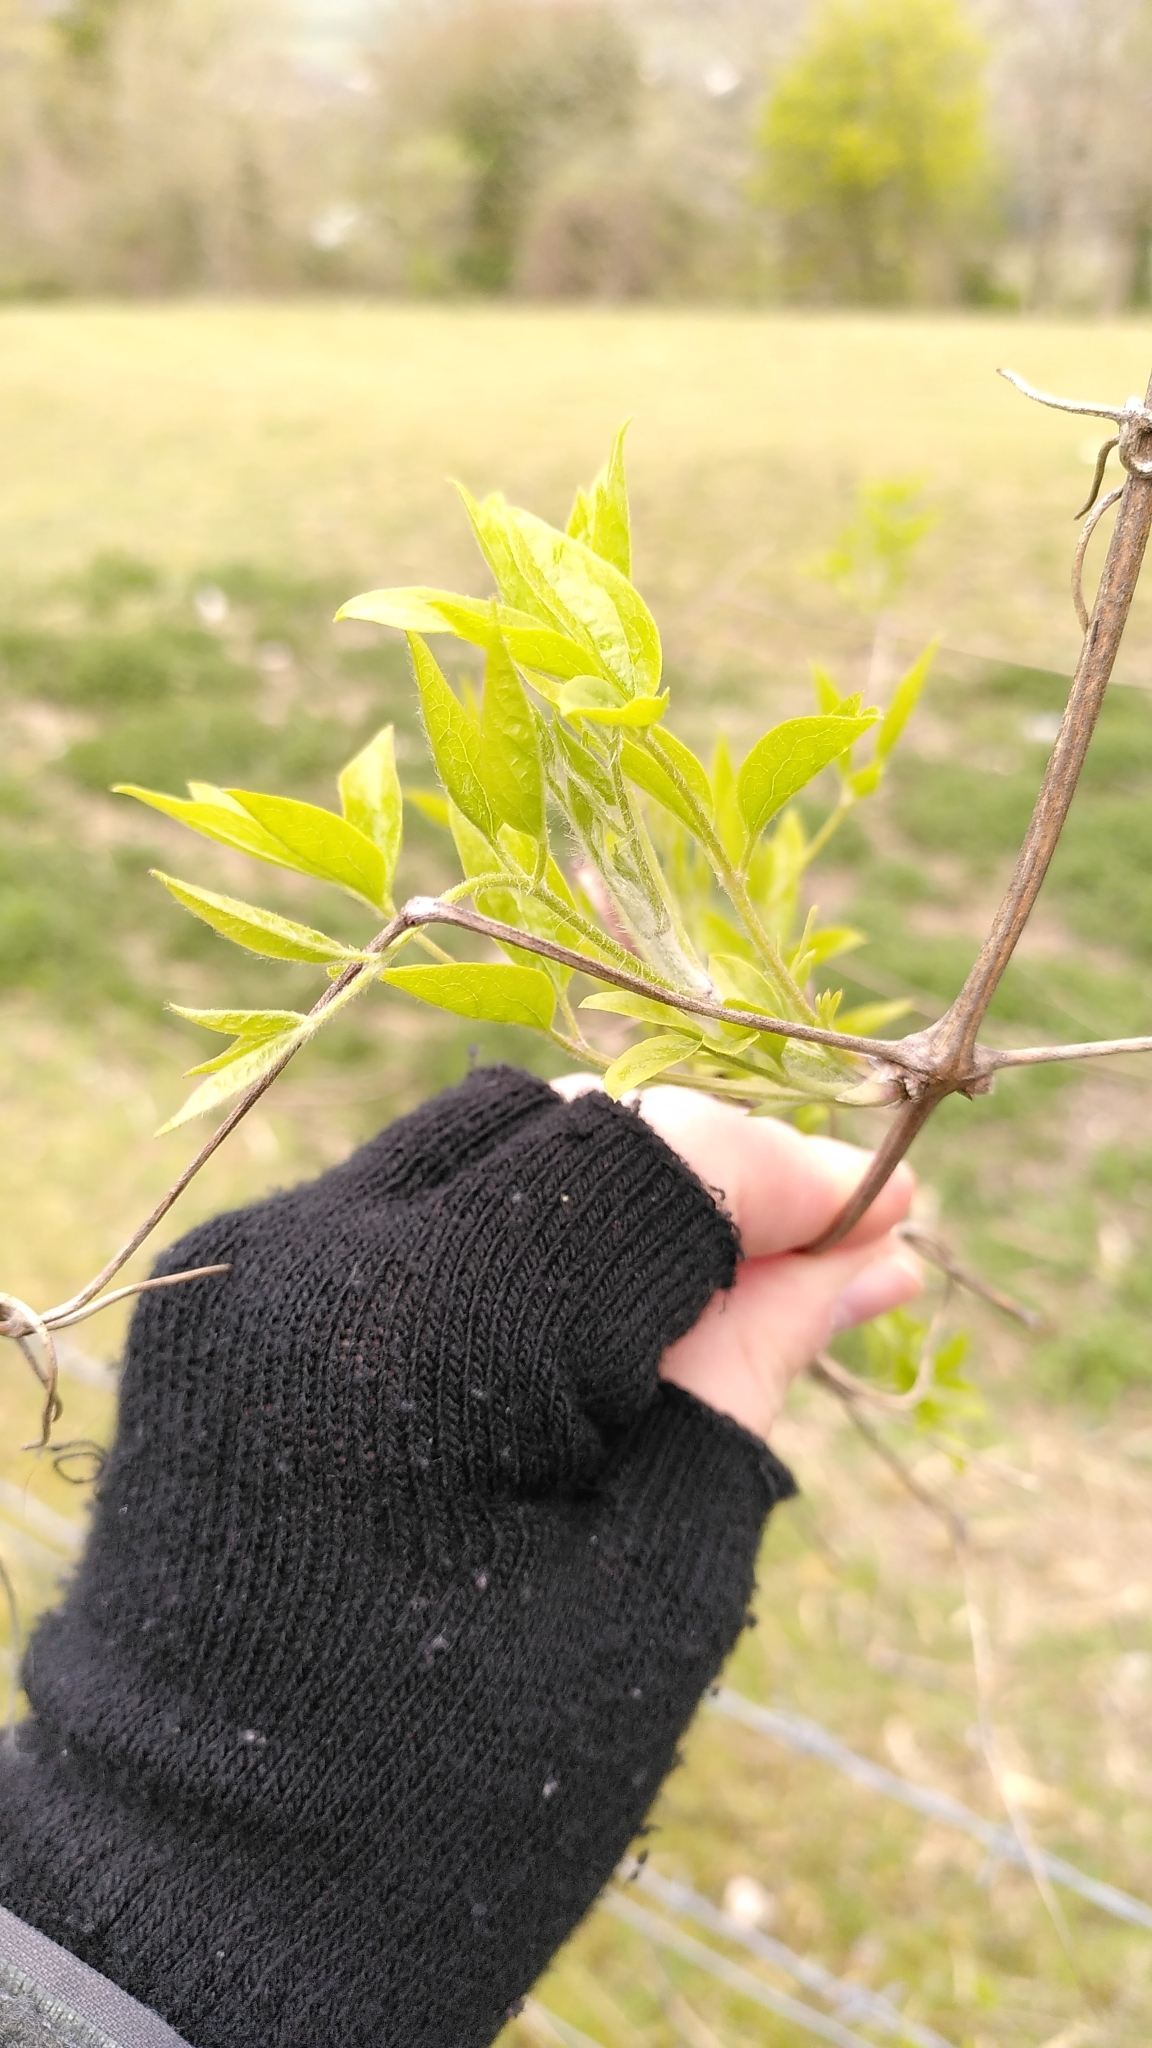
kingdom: Plantae
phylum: Tracheophyta
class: Magnoliopsida
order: Ranunculales
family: Ranunculaceae
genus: Clematis
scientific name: Clematis vitalba
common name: Evergreen clematis
